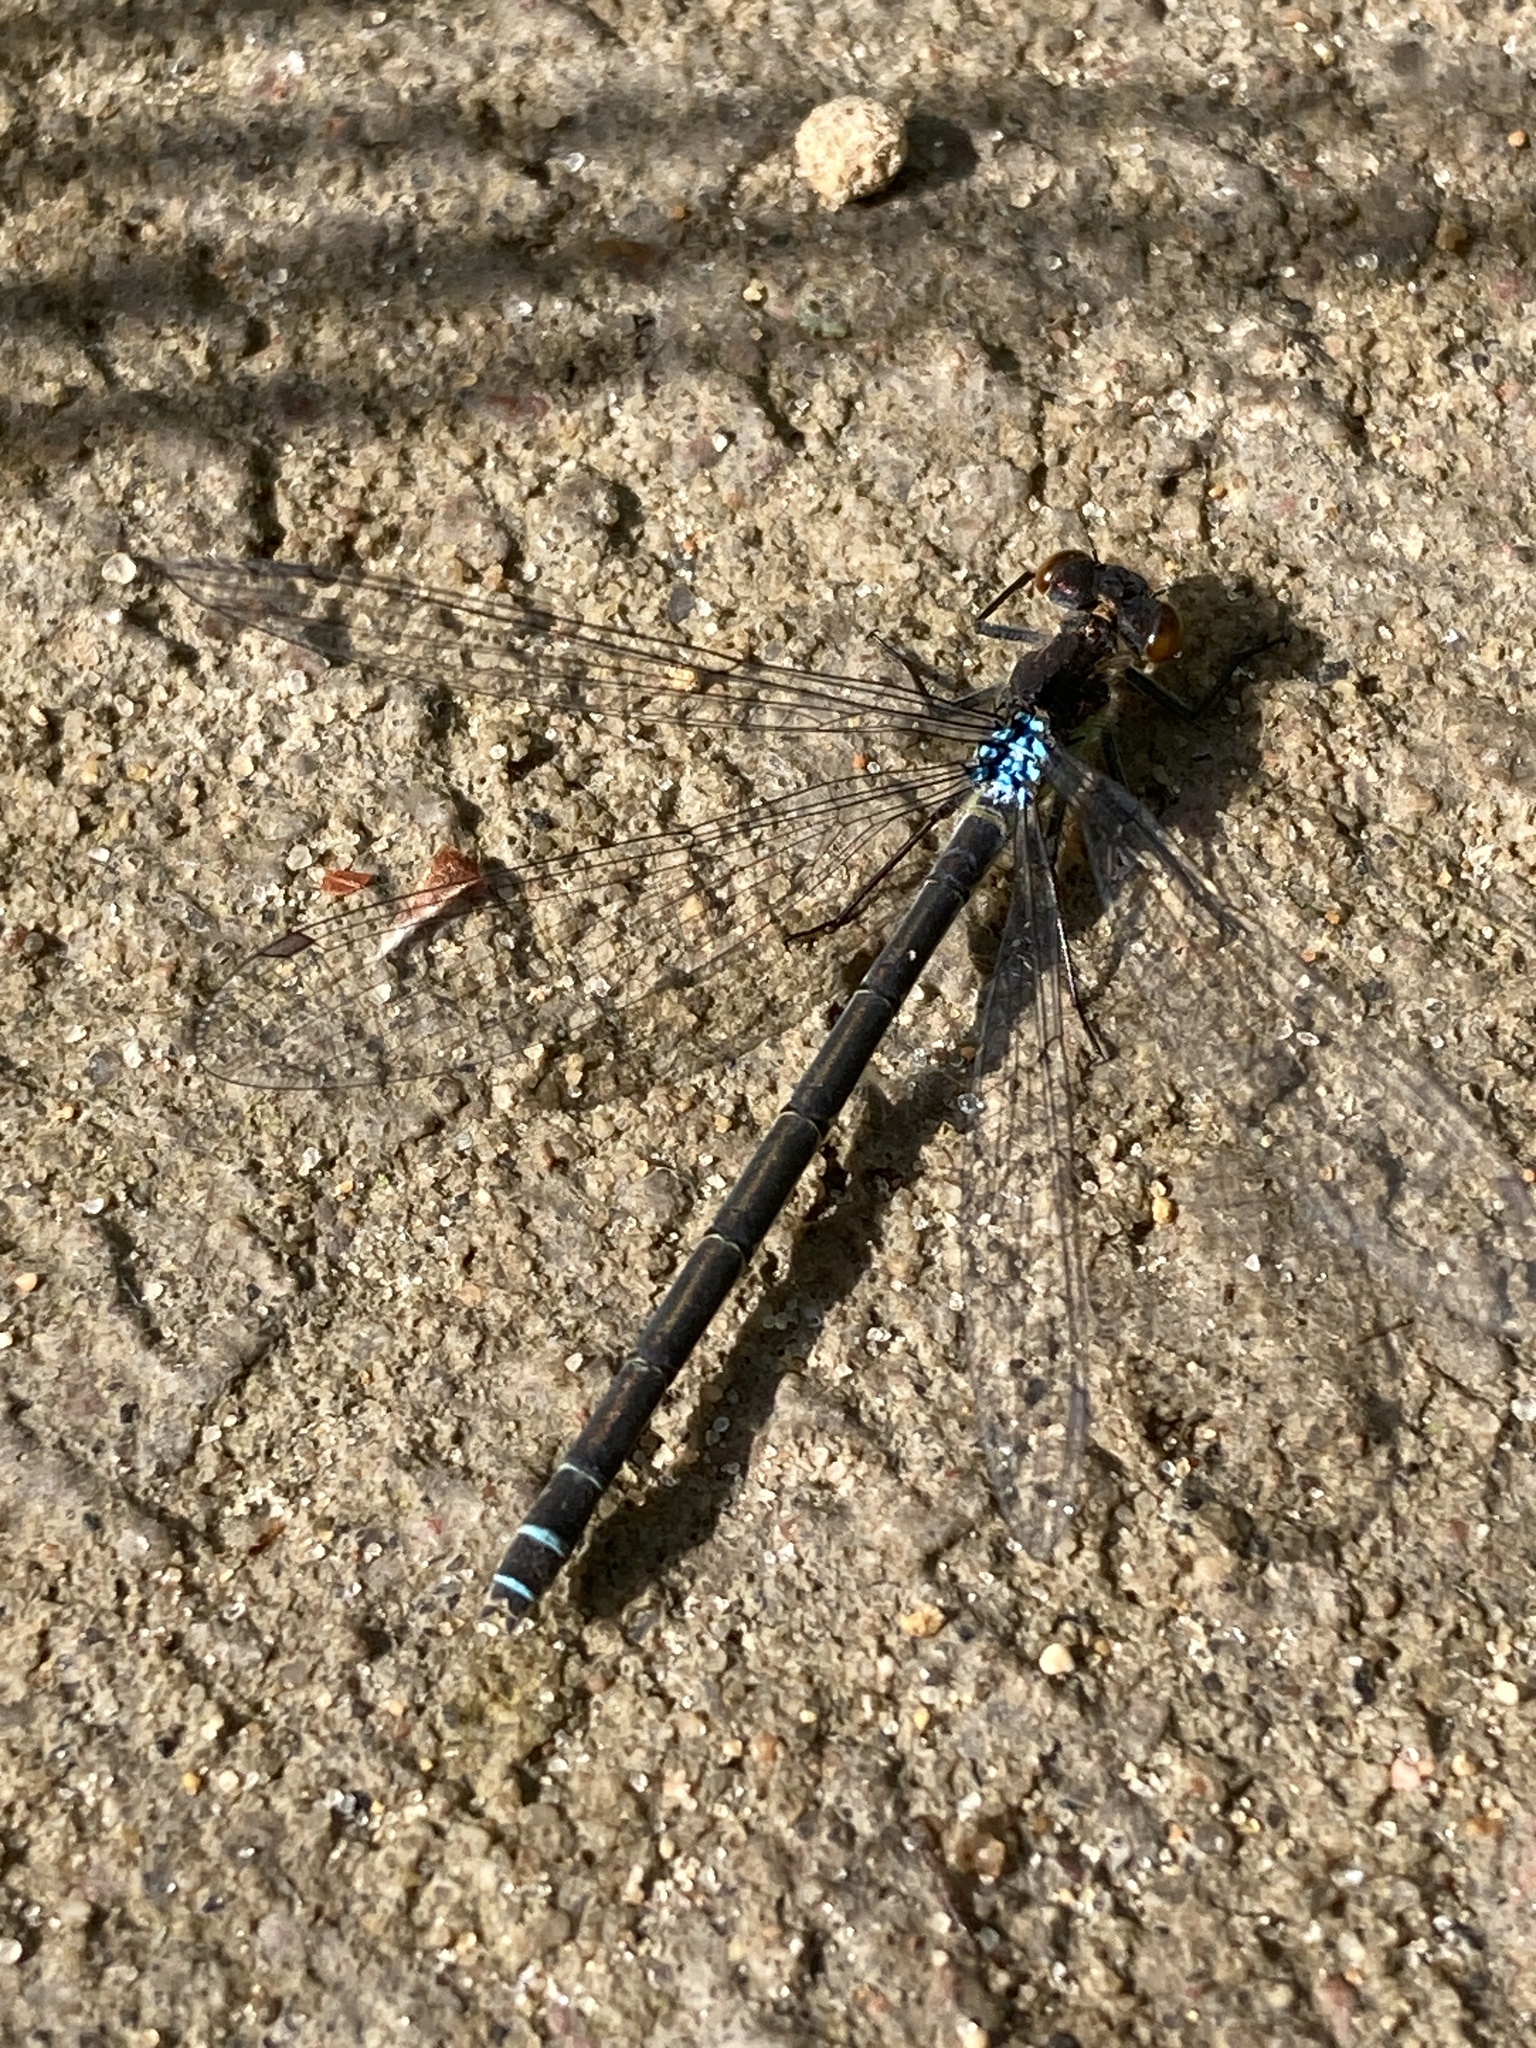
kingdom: Animalia
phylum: Arthropoda
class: Insecta
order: Odonata
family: Coenagrionidae
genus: Erythromma
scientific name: Erythromma najas
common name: Red-eyed damselfly
